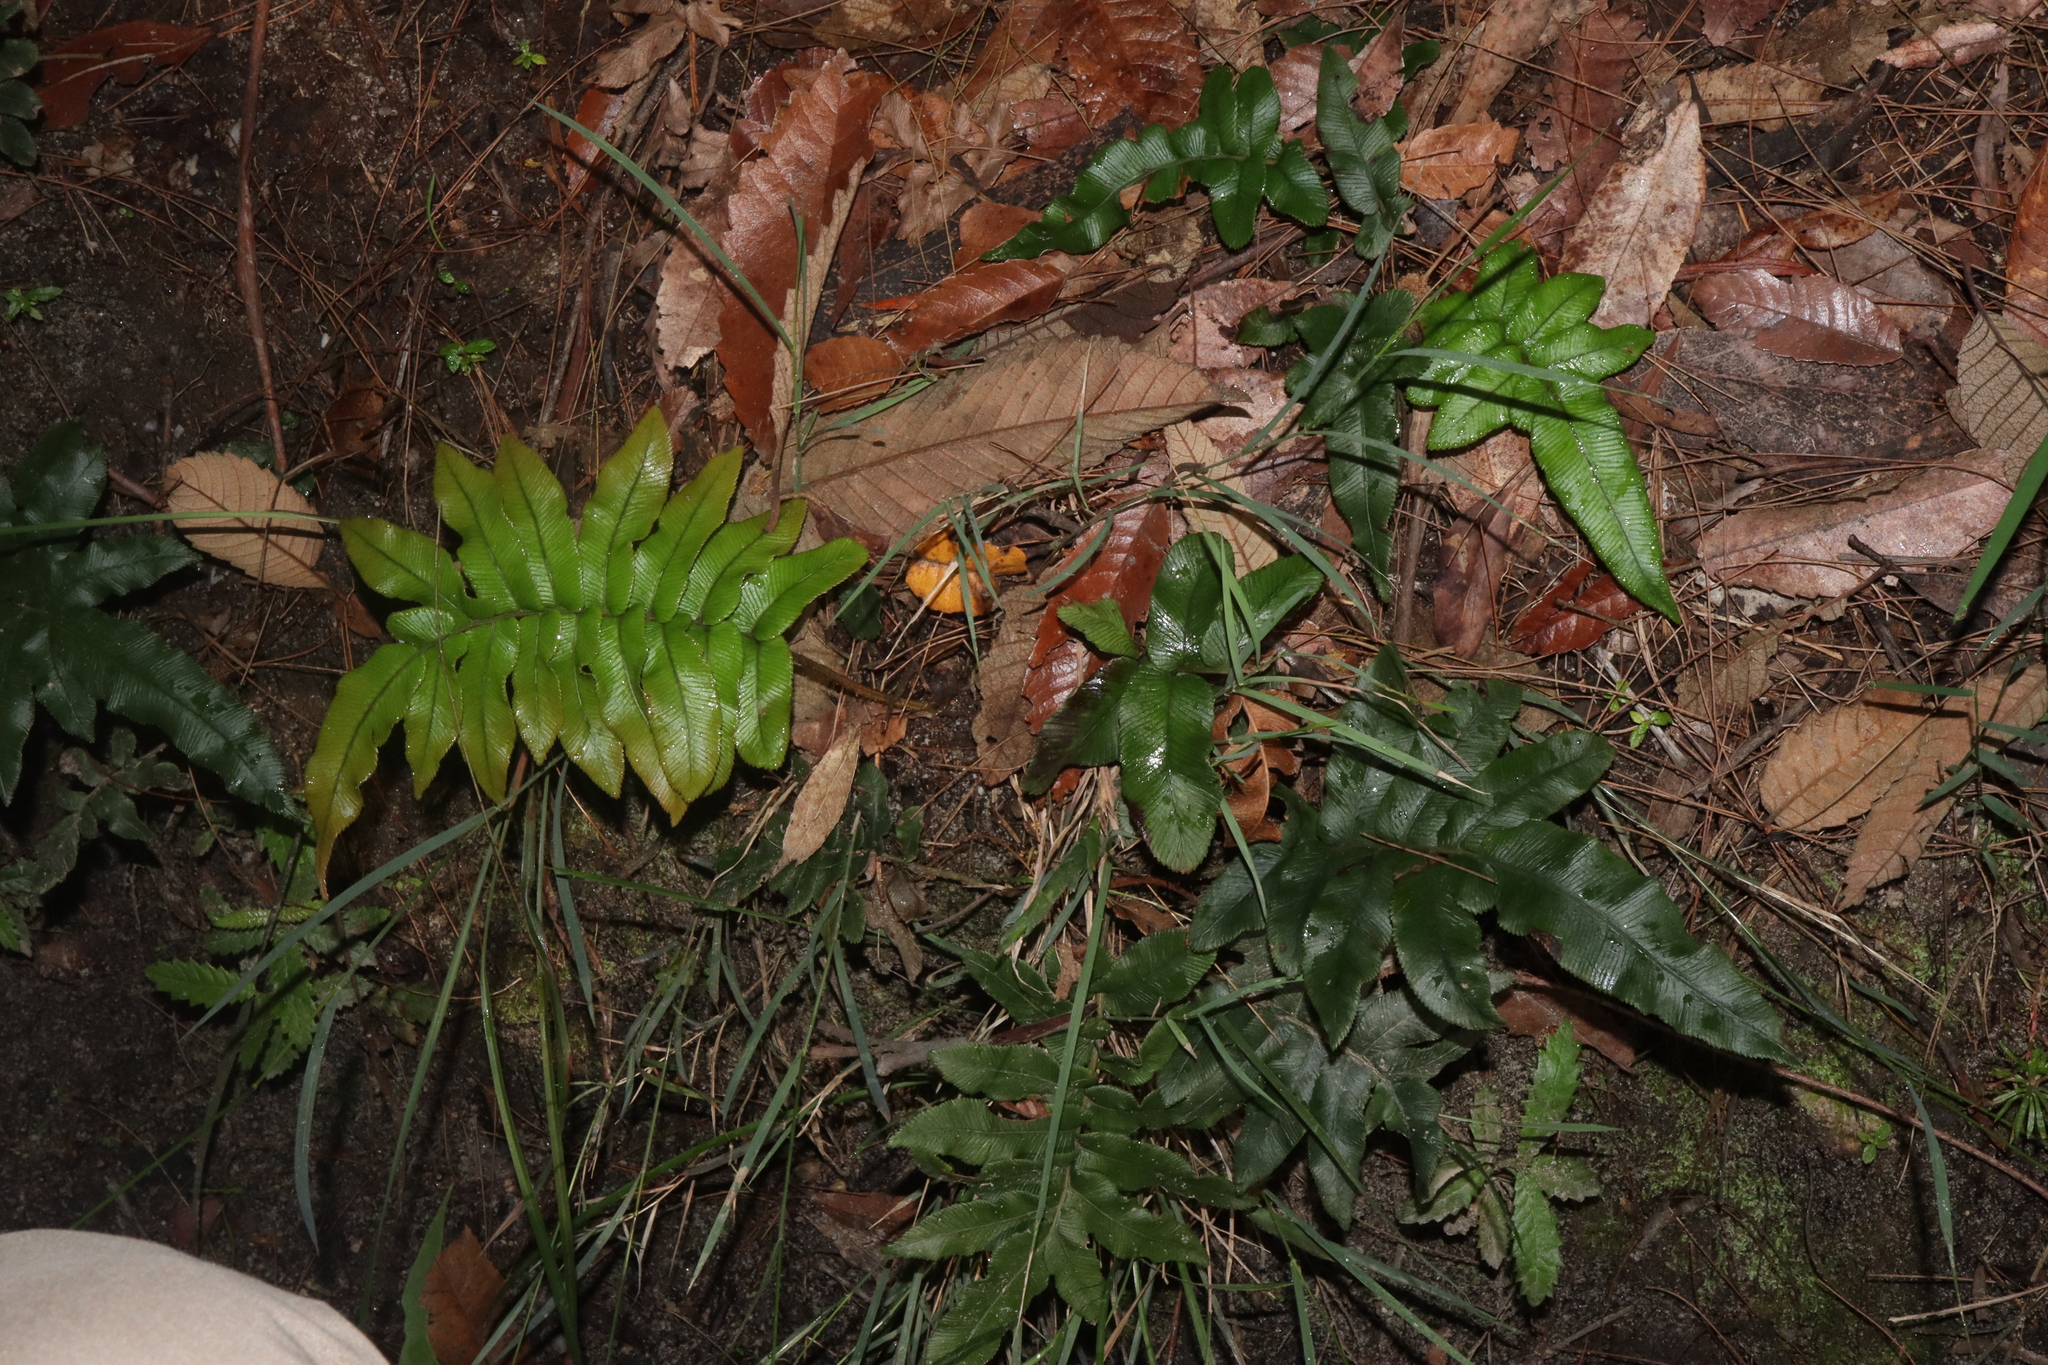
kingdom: Plantae
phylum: Tracheophyta
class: Polypodiopsida
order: Polypodiales
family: Blechnaceae
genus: Parablechnum
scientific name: Parablechnum wattsii
